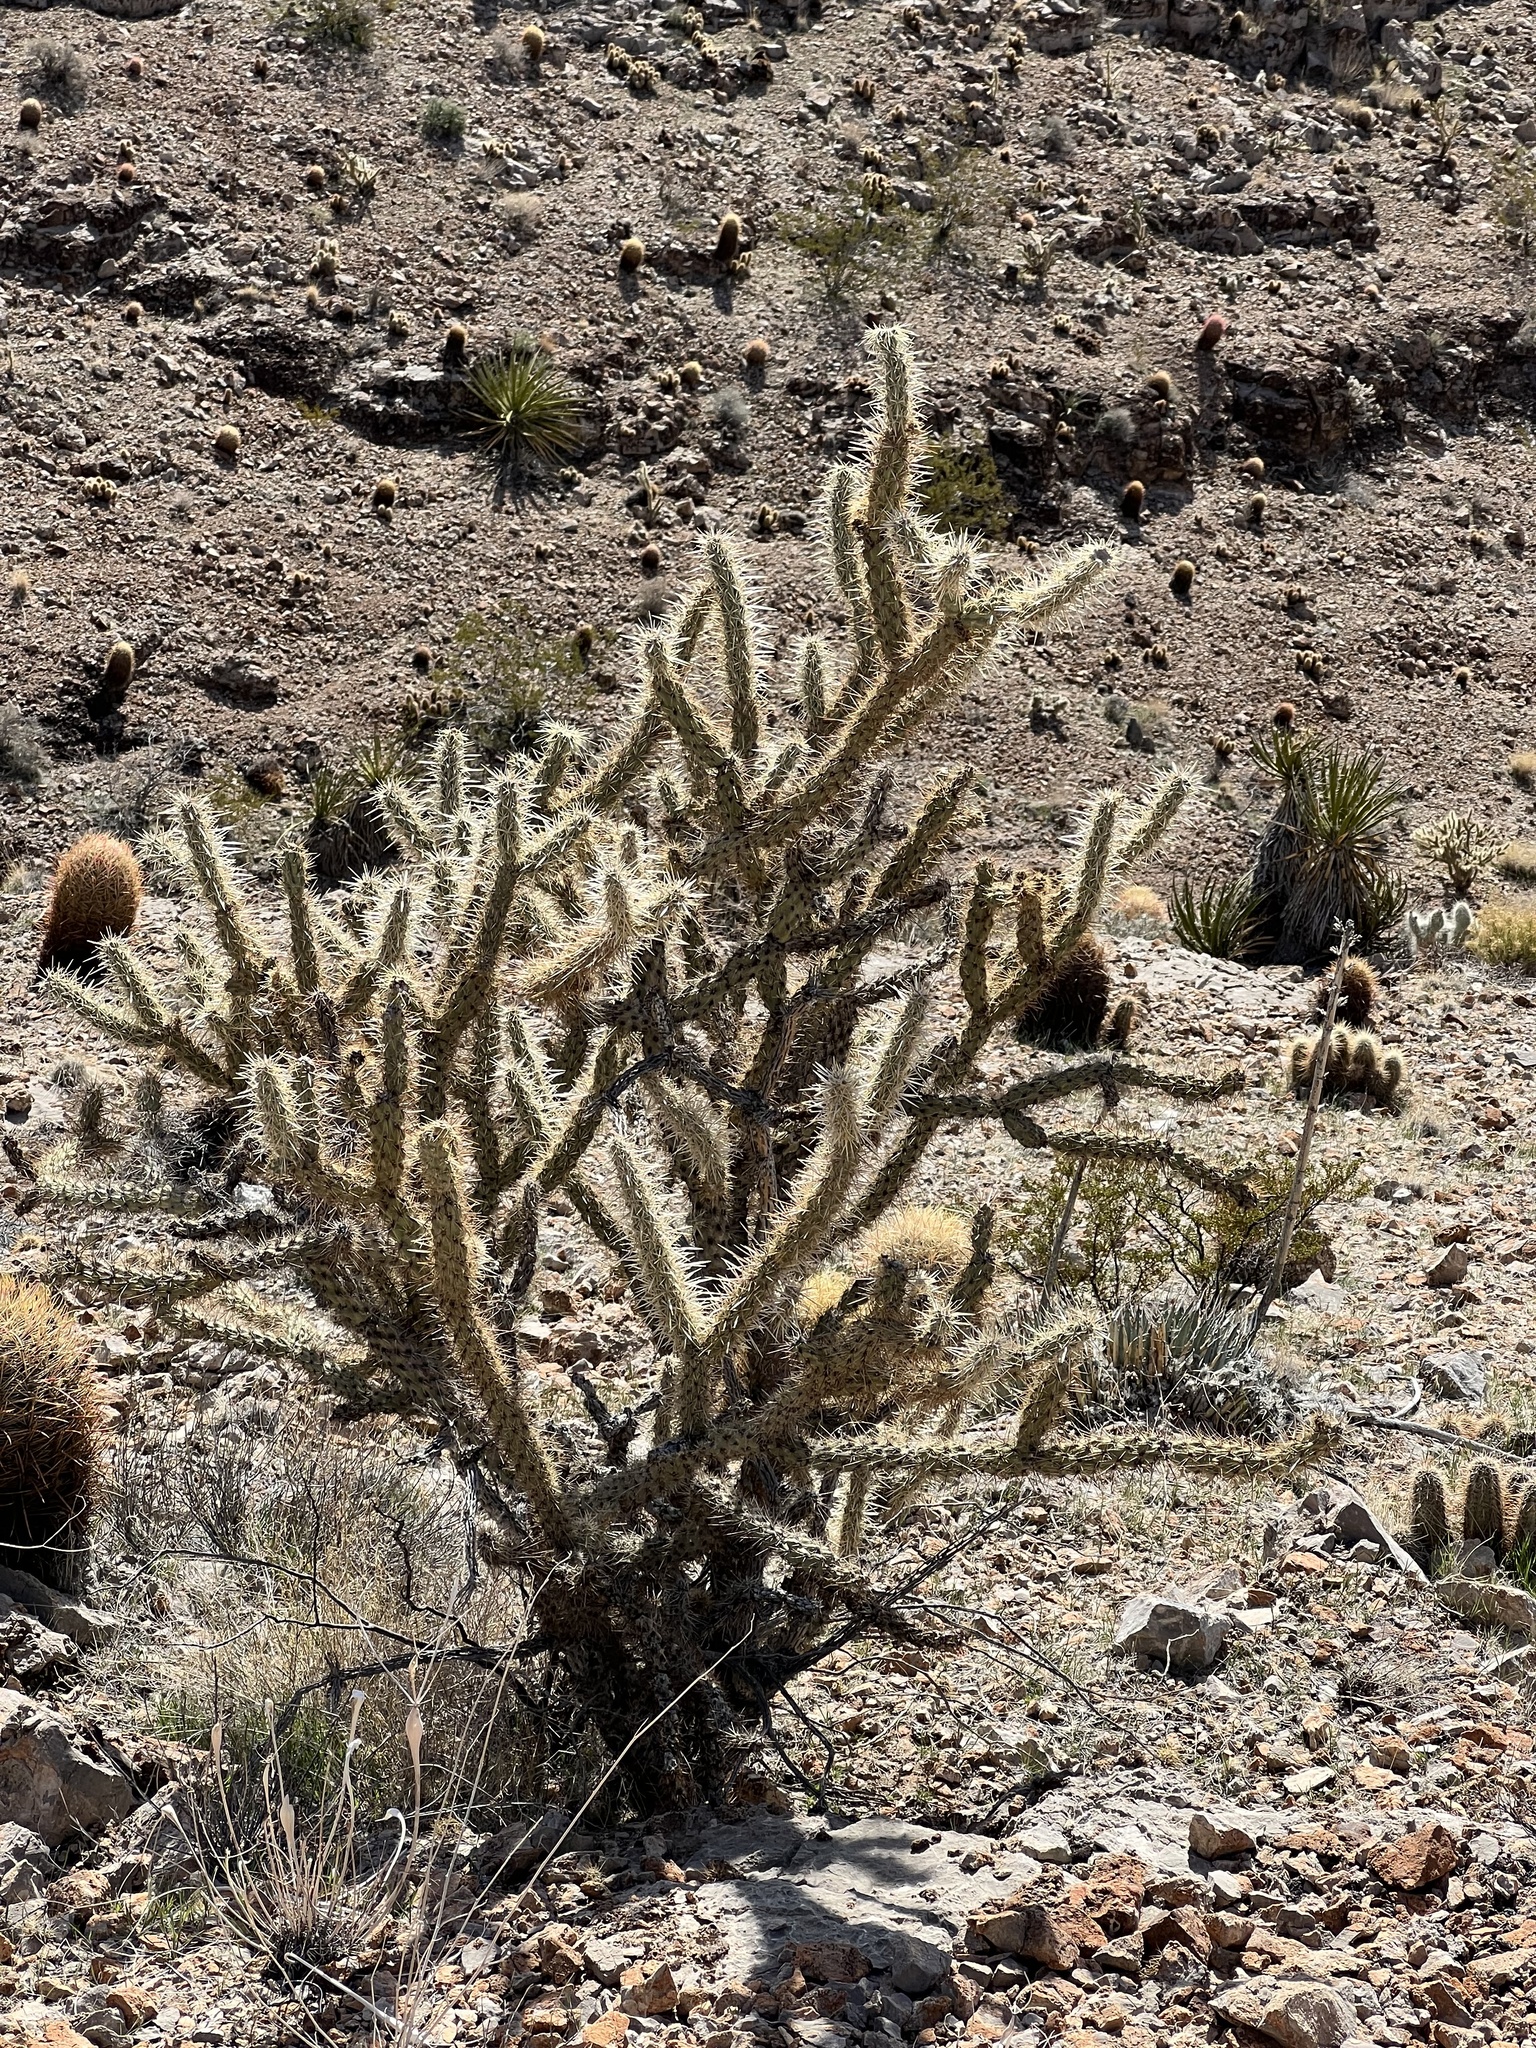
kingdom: Plantae
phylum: Tracheophyta
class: Magnoliopsida
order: Caryophyllales
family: Cactaceae
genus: Cylindropuntia
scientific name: Cylindropuntia acanthocarpa
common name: Buckhorn cholla
